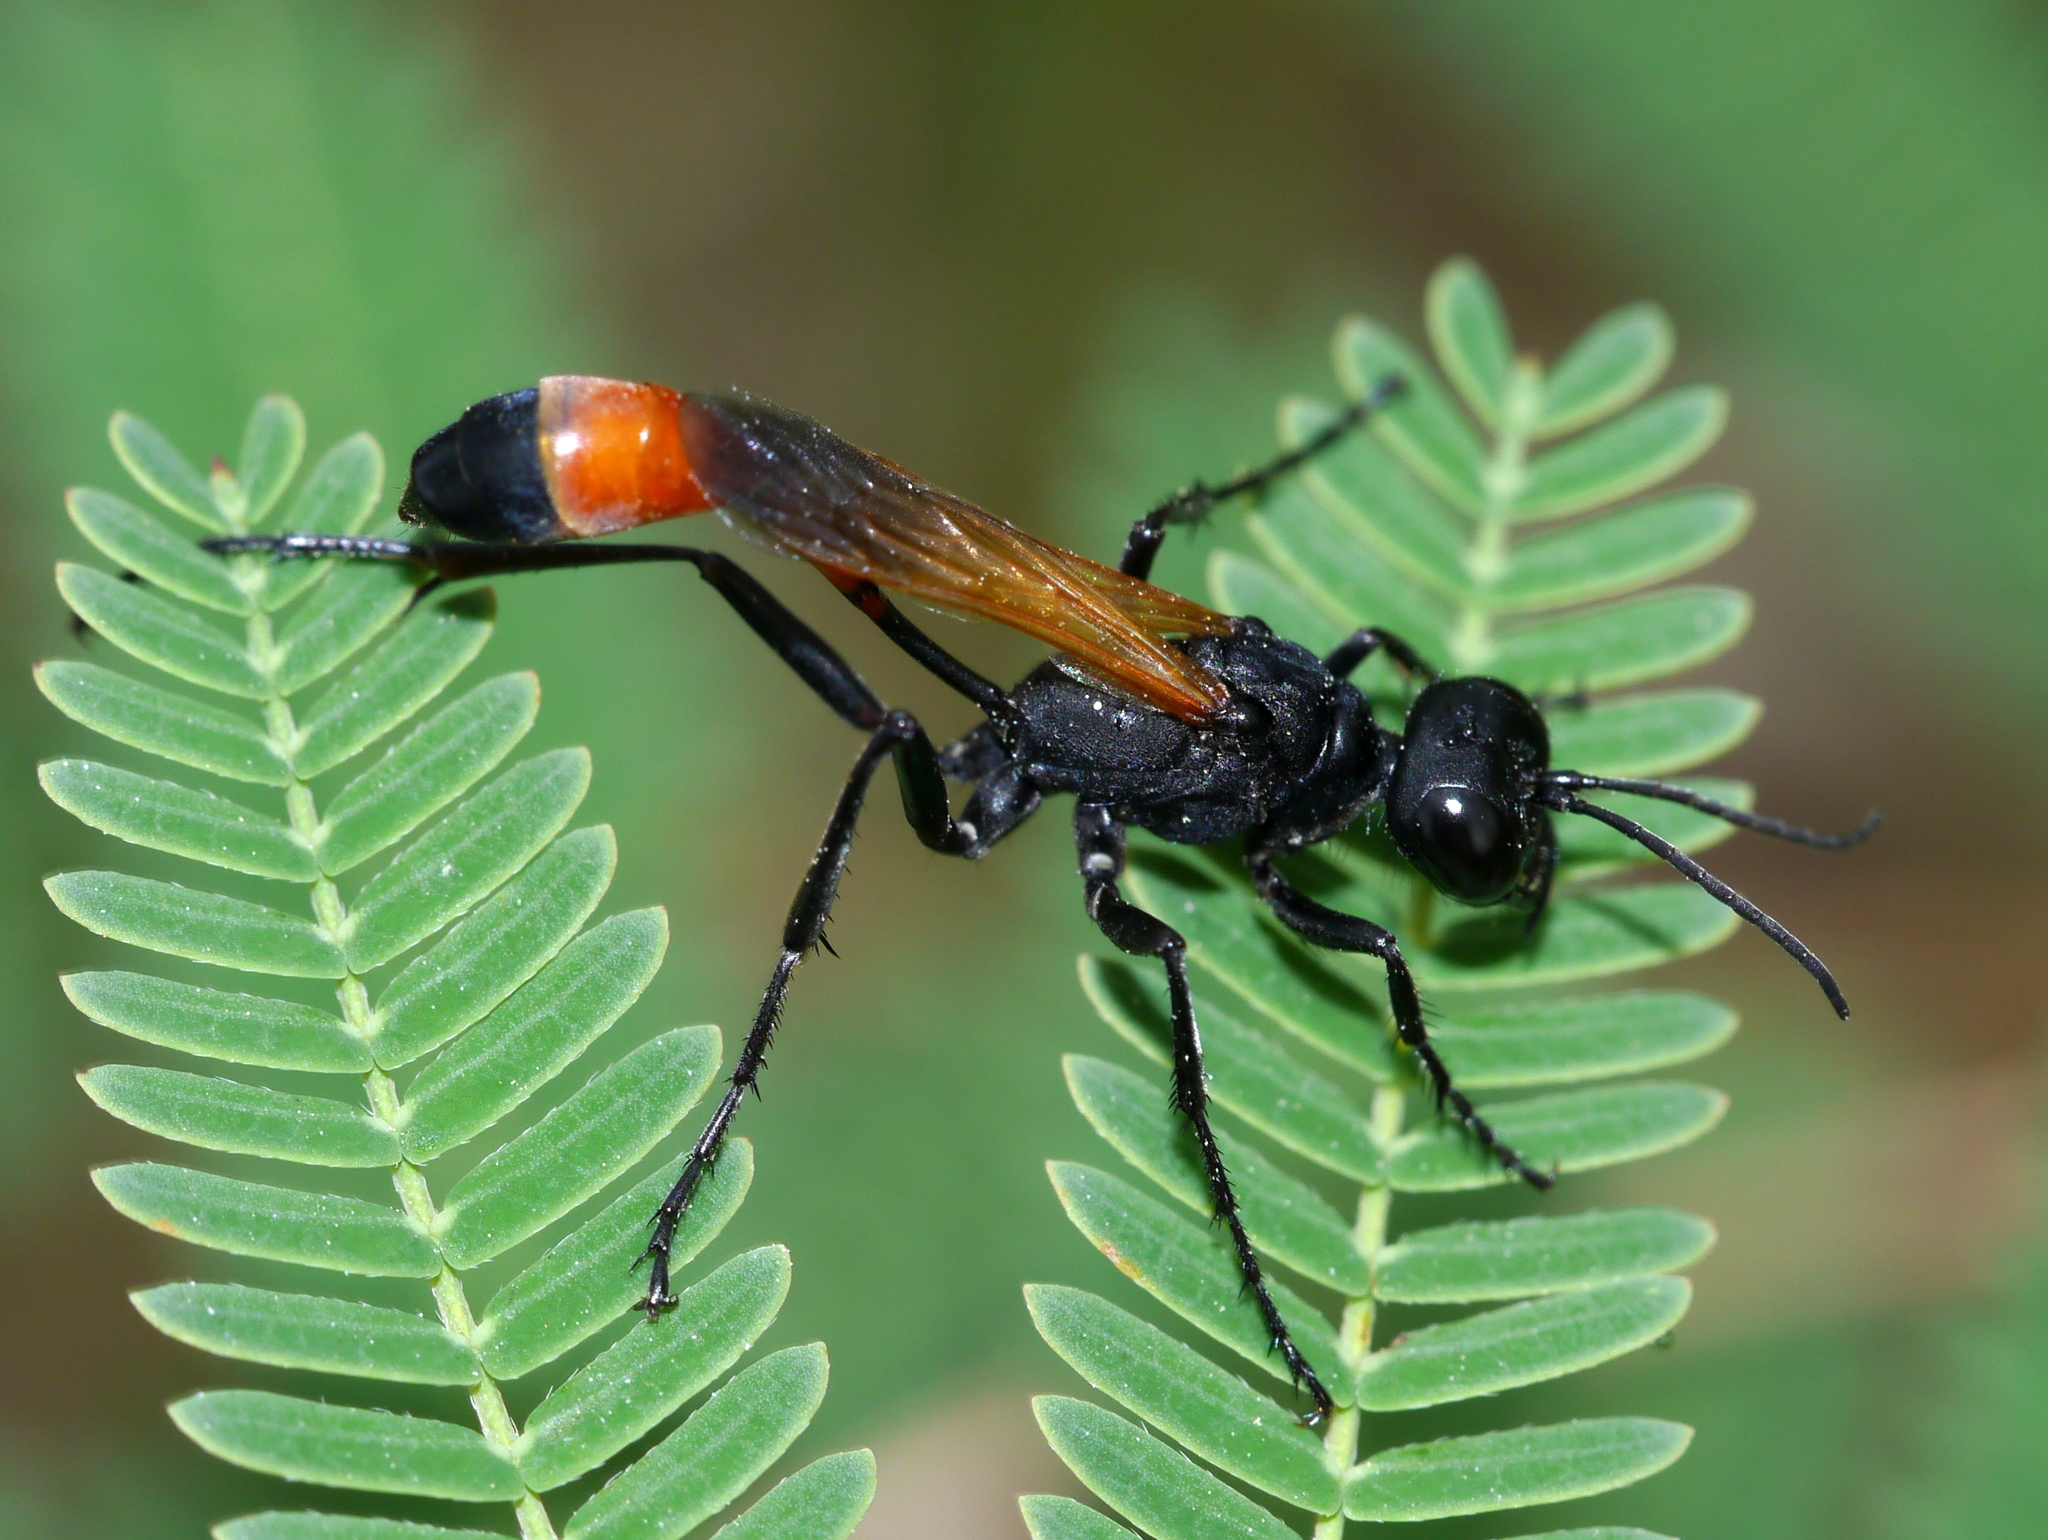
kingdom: Animalia
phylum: Arthropoda
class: Insecta
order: Hymenoptera
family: Sphecidae
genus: Ammophila
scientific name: Ammophila placida
